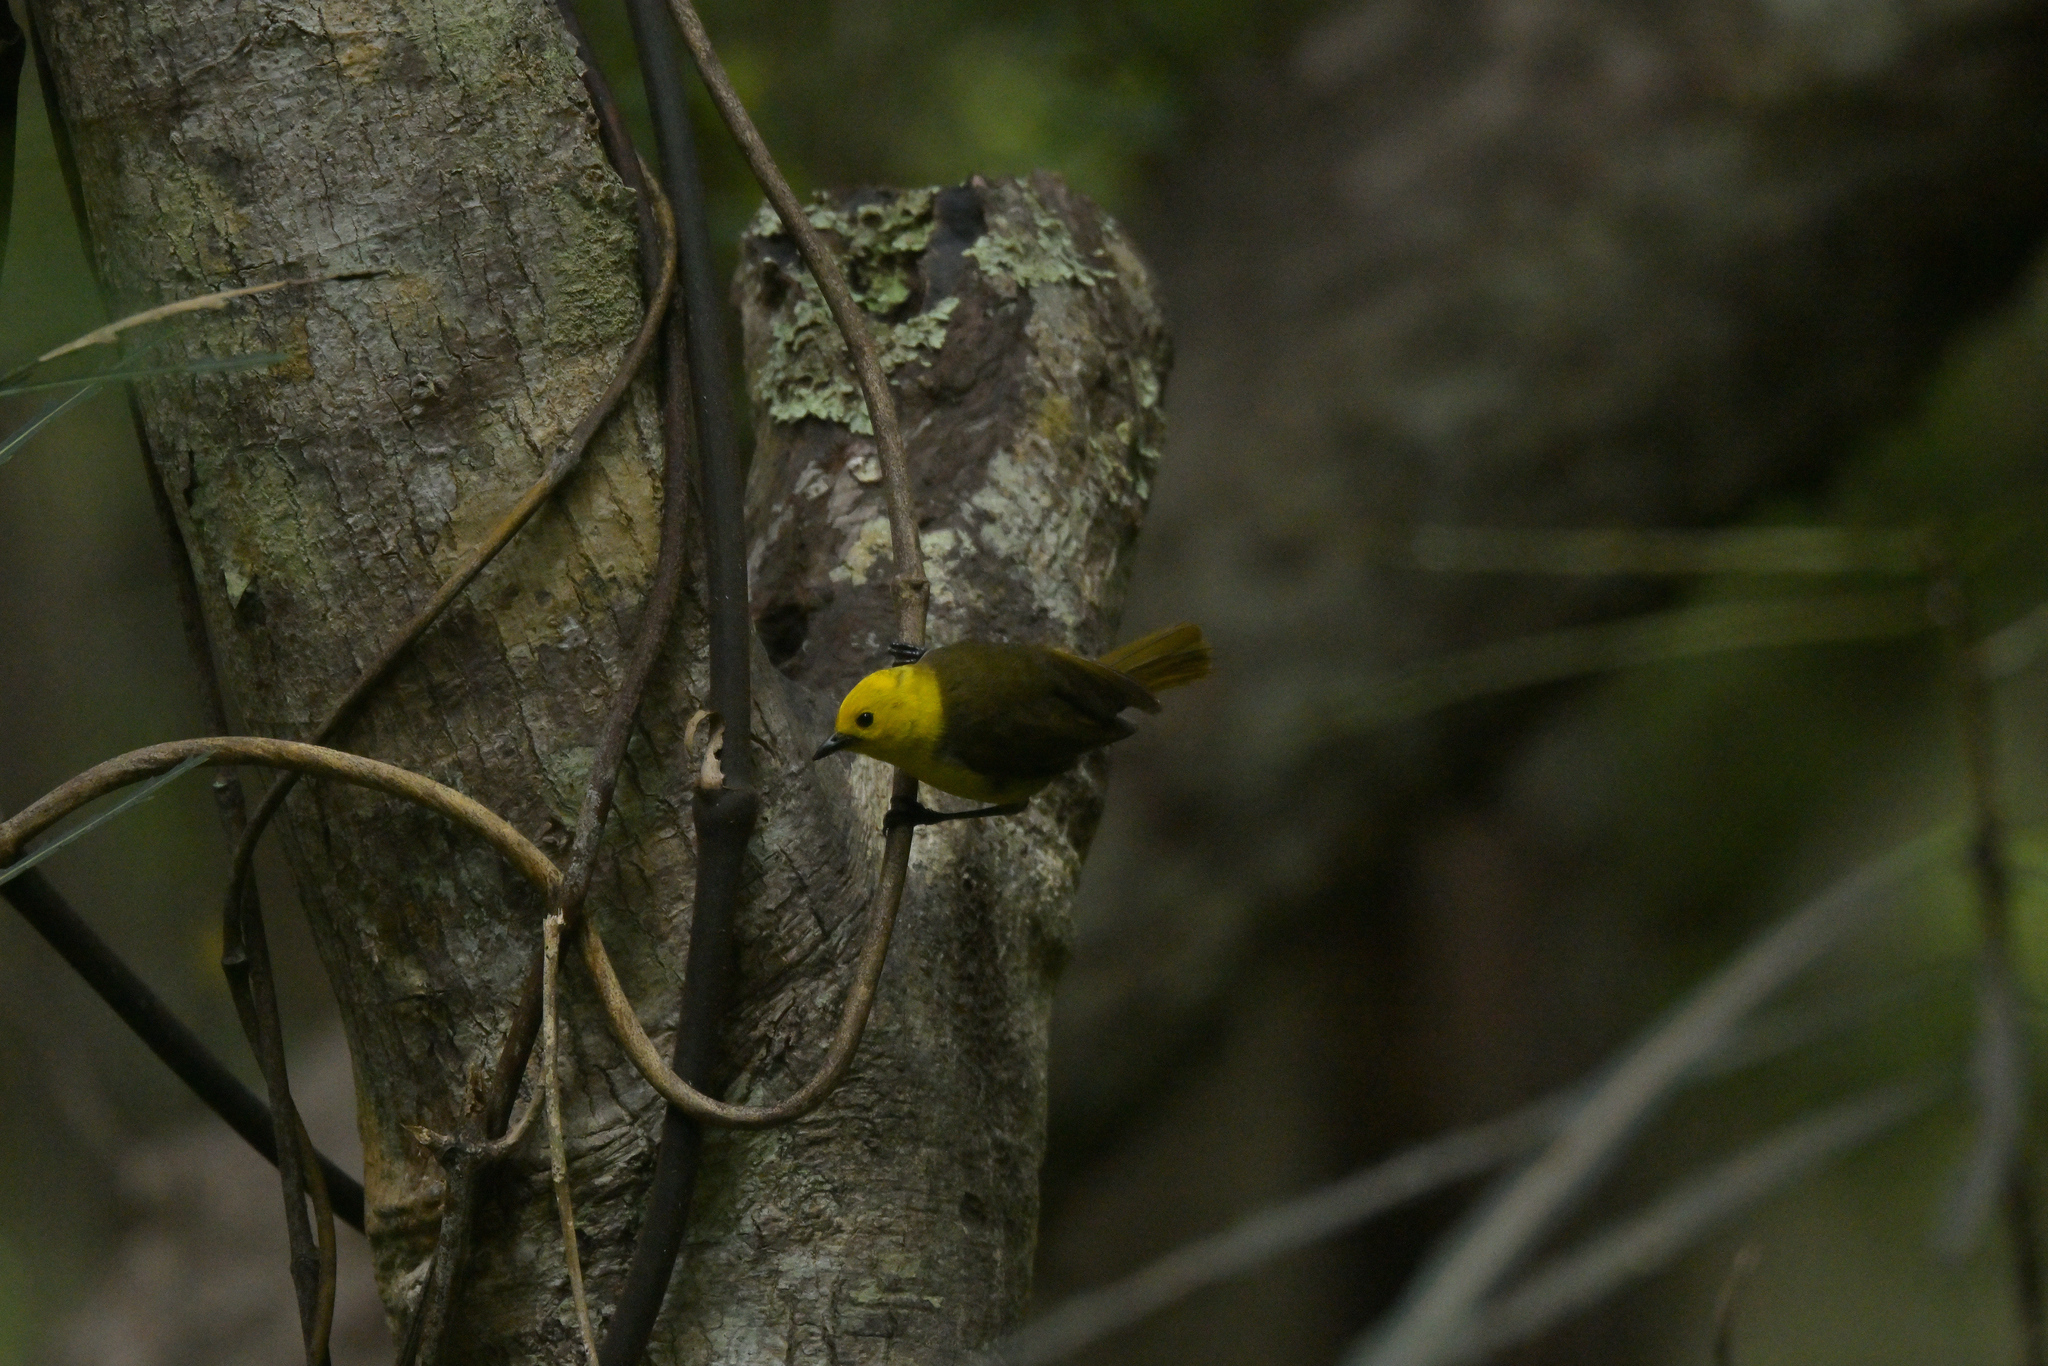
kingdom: Animalia
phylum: Chordata
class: Aves
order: Passeriformes
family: Acanthizidae
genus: Mohoua
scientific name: Mohoua ochrocephala
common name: Yellowhead
